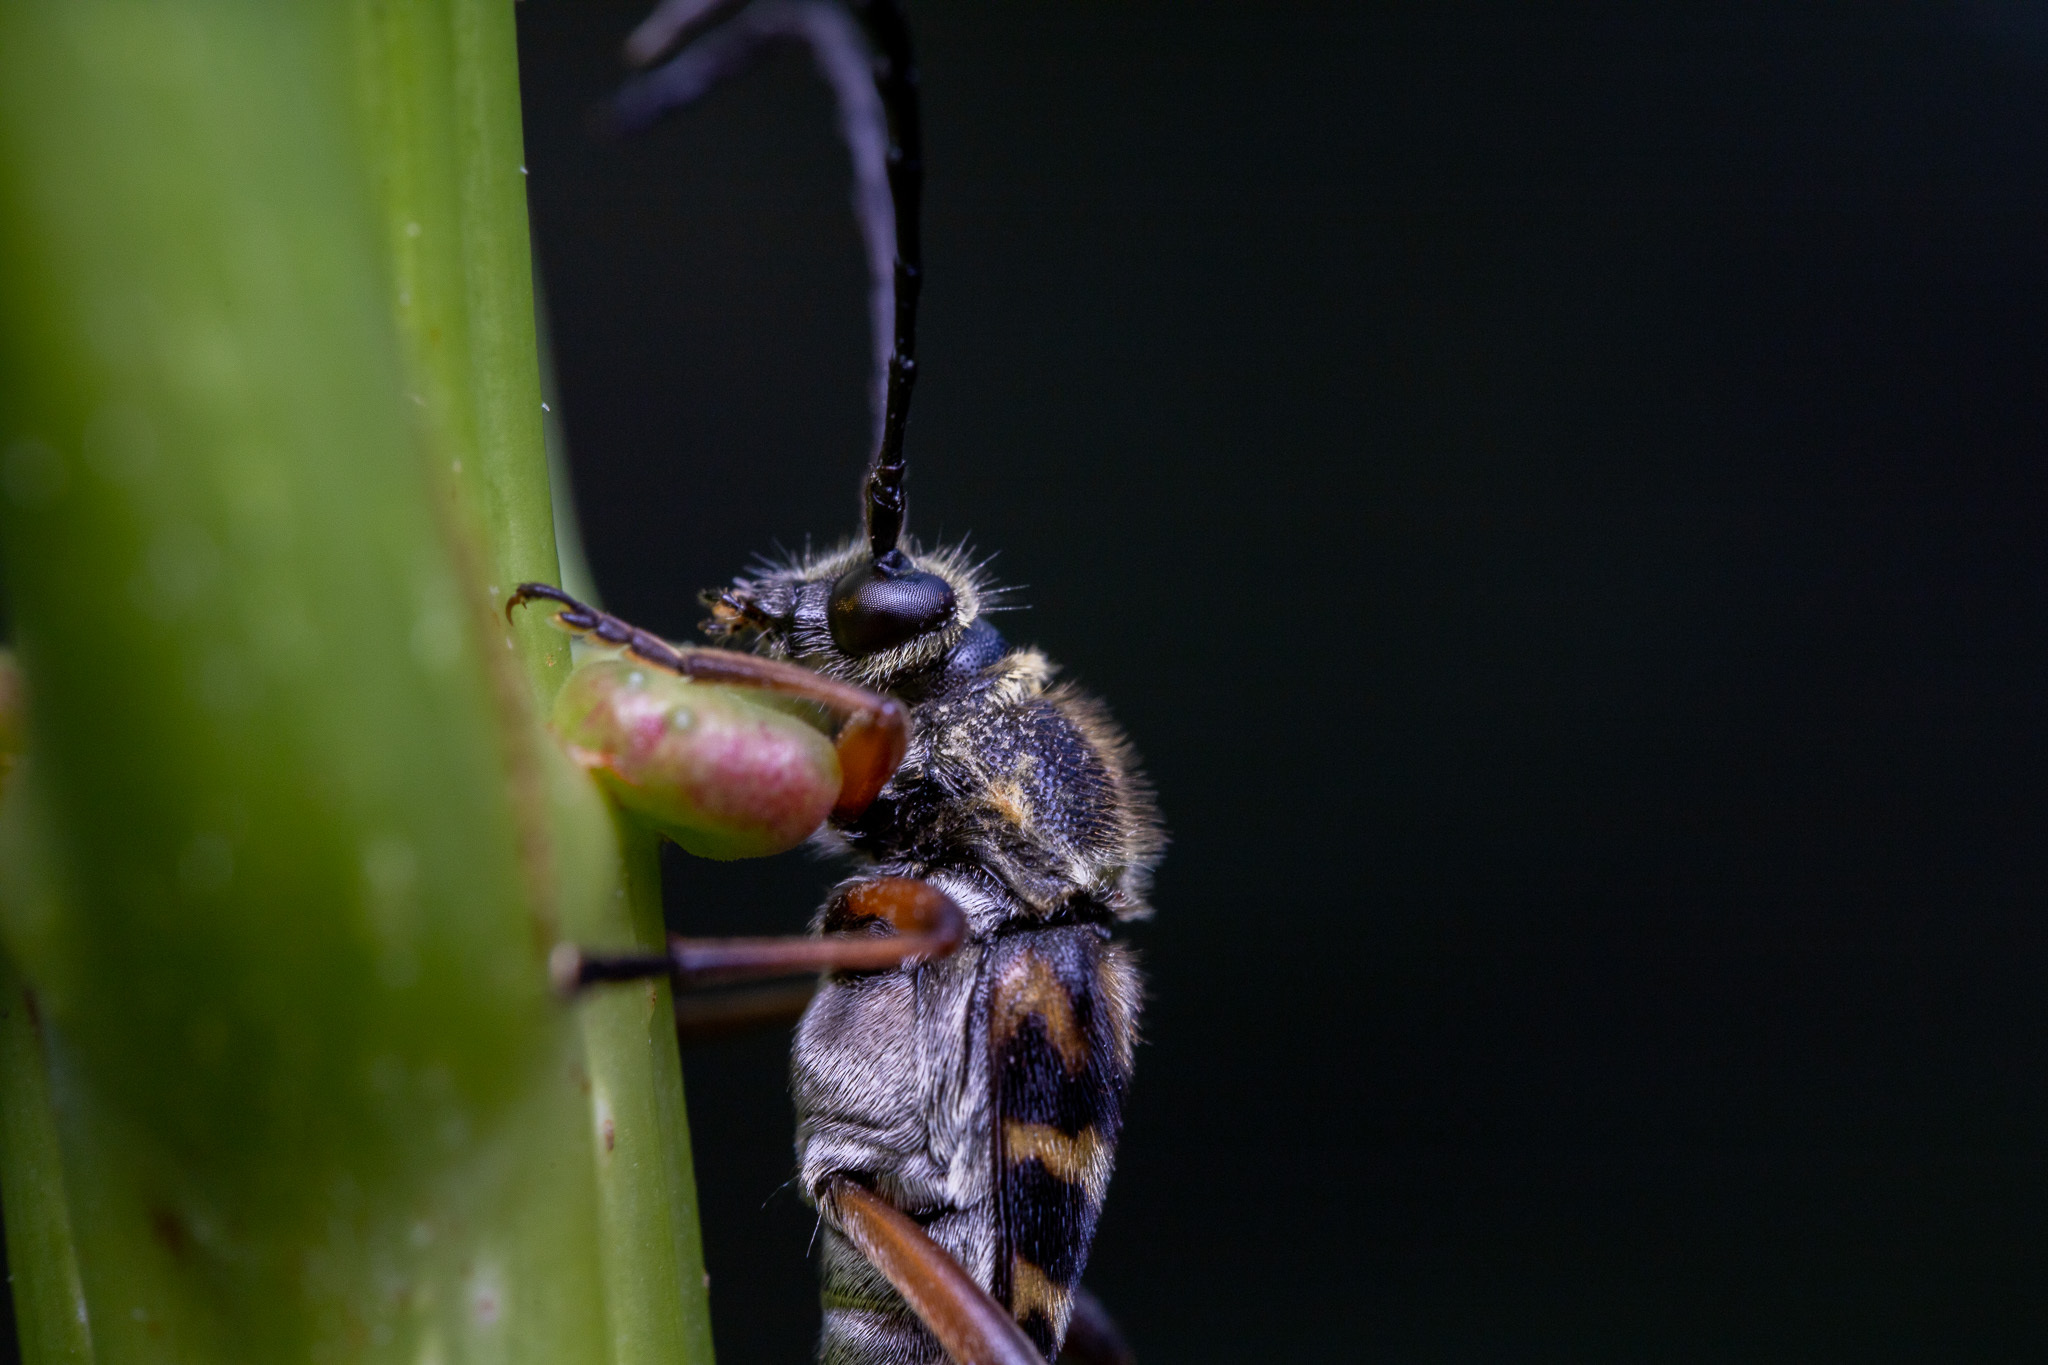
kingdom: Animalia
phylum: Arthropoda
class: Insecta
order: Coleoptera
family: Cerambycidae
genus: Typocerus
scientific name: Typocerus zebra
